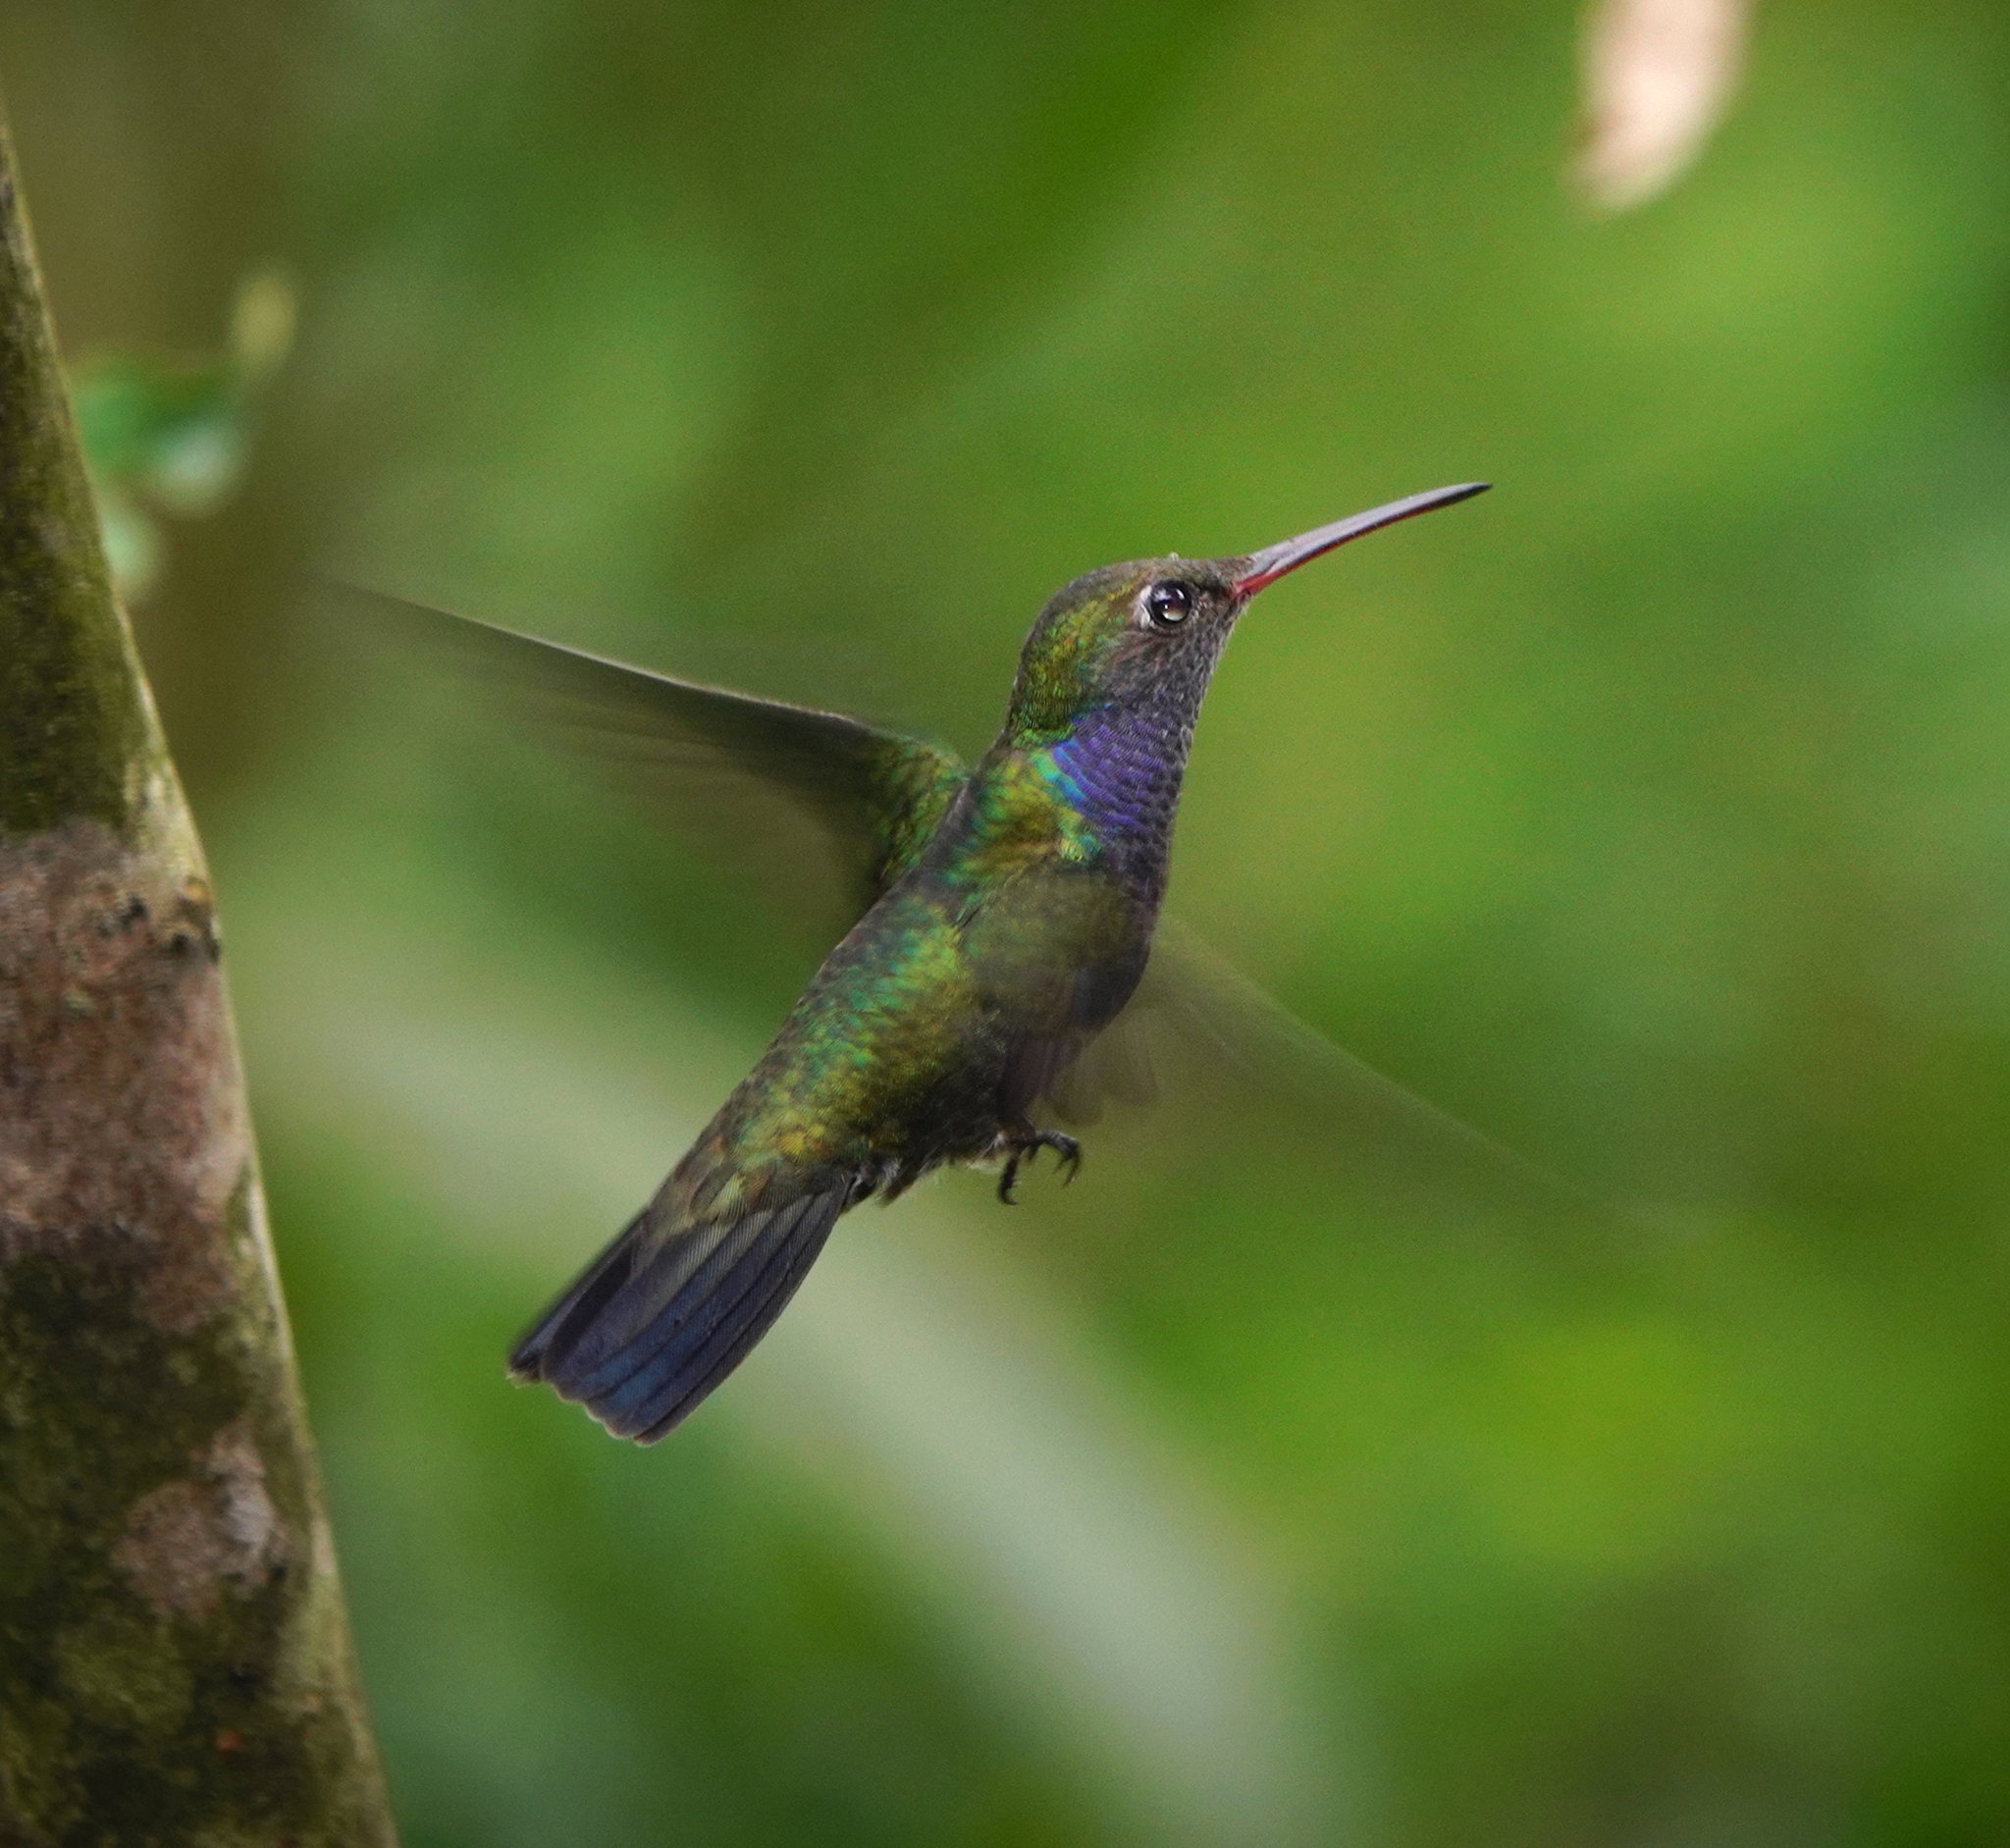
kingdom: Animalia
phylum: Chordata
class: Aves
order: Apodiformes
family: Trochilidae
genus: Chionomesa
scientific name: Chionomesa lactea
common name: Sapphire-spangled emerald
